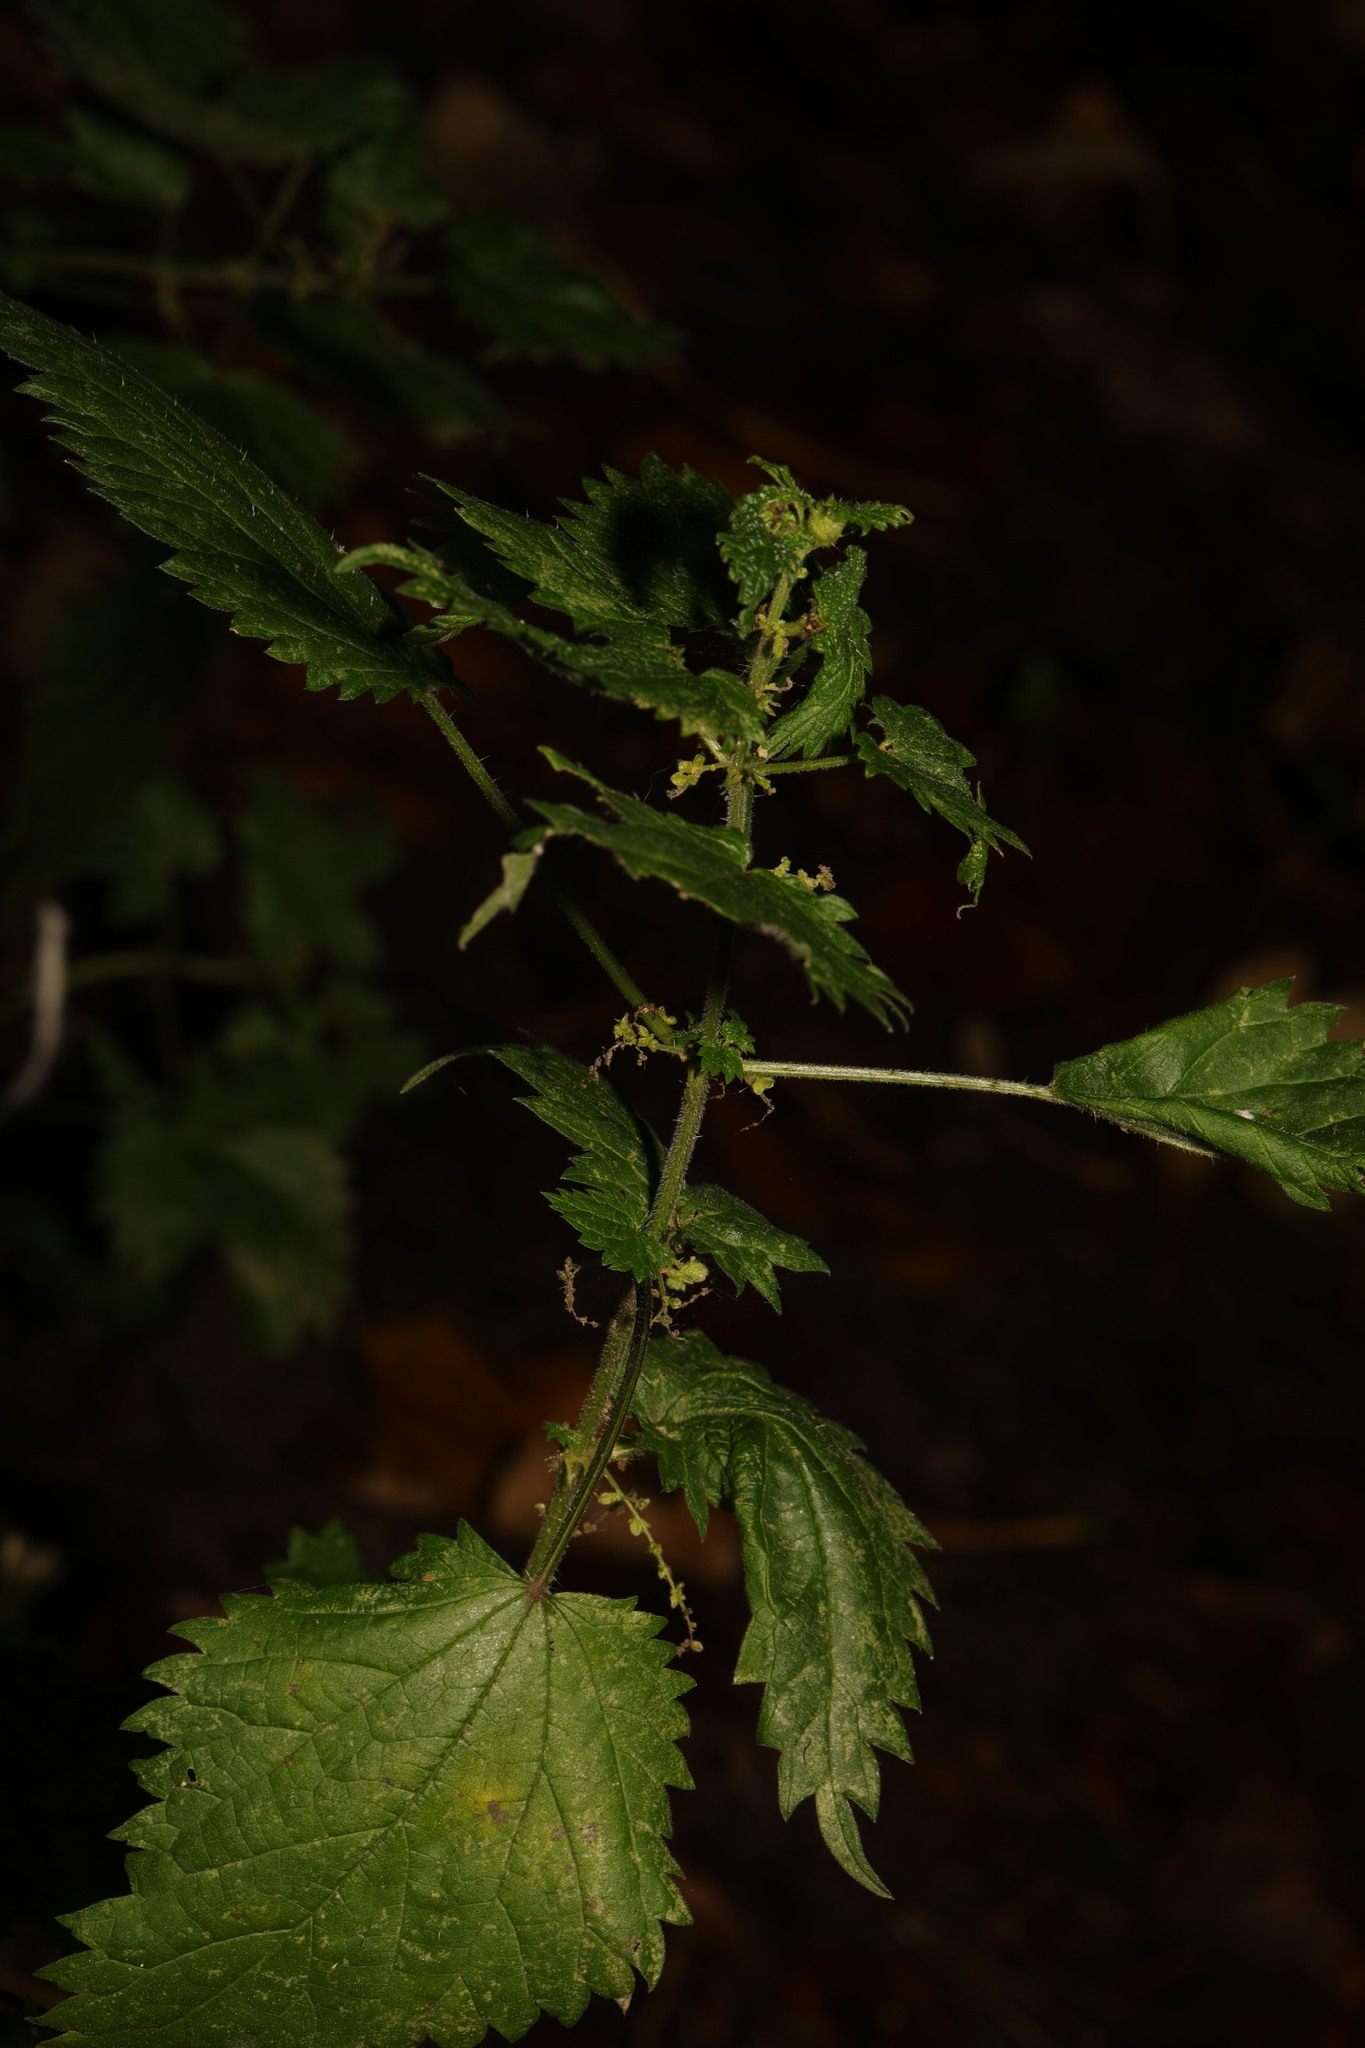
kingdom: Plantae
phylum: Tracheophyta
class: Magnoliopsida
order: Rosales
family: Urticaceae
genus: Urtica
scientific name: Urtica dioica
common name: Common nettle
